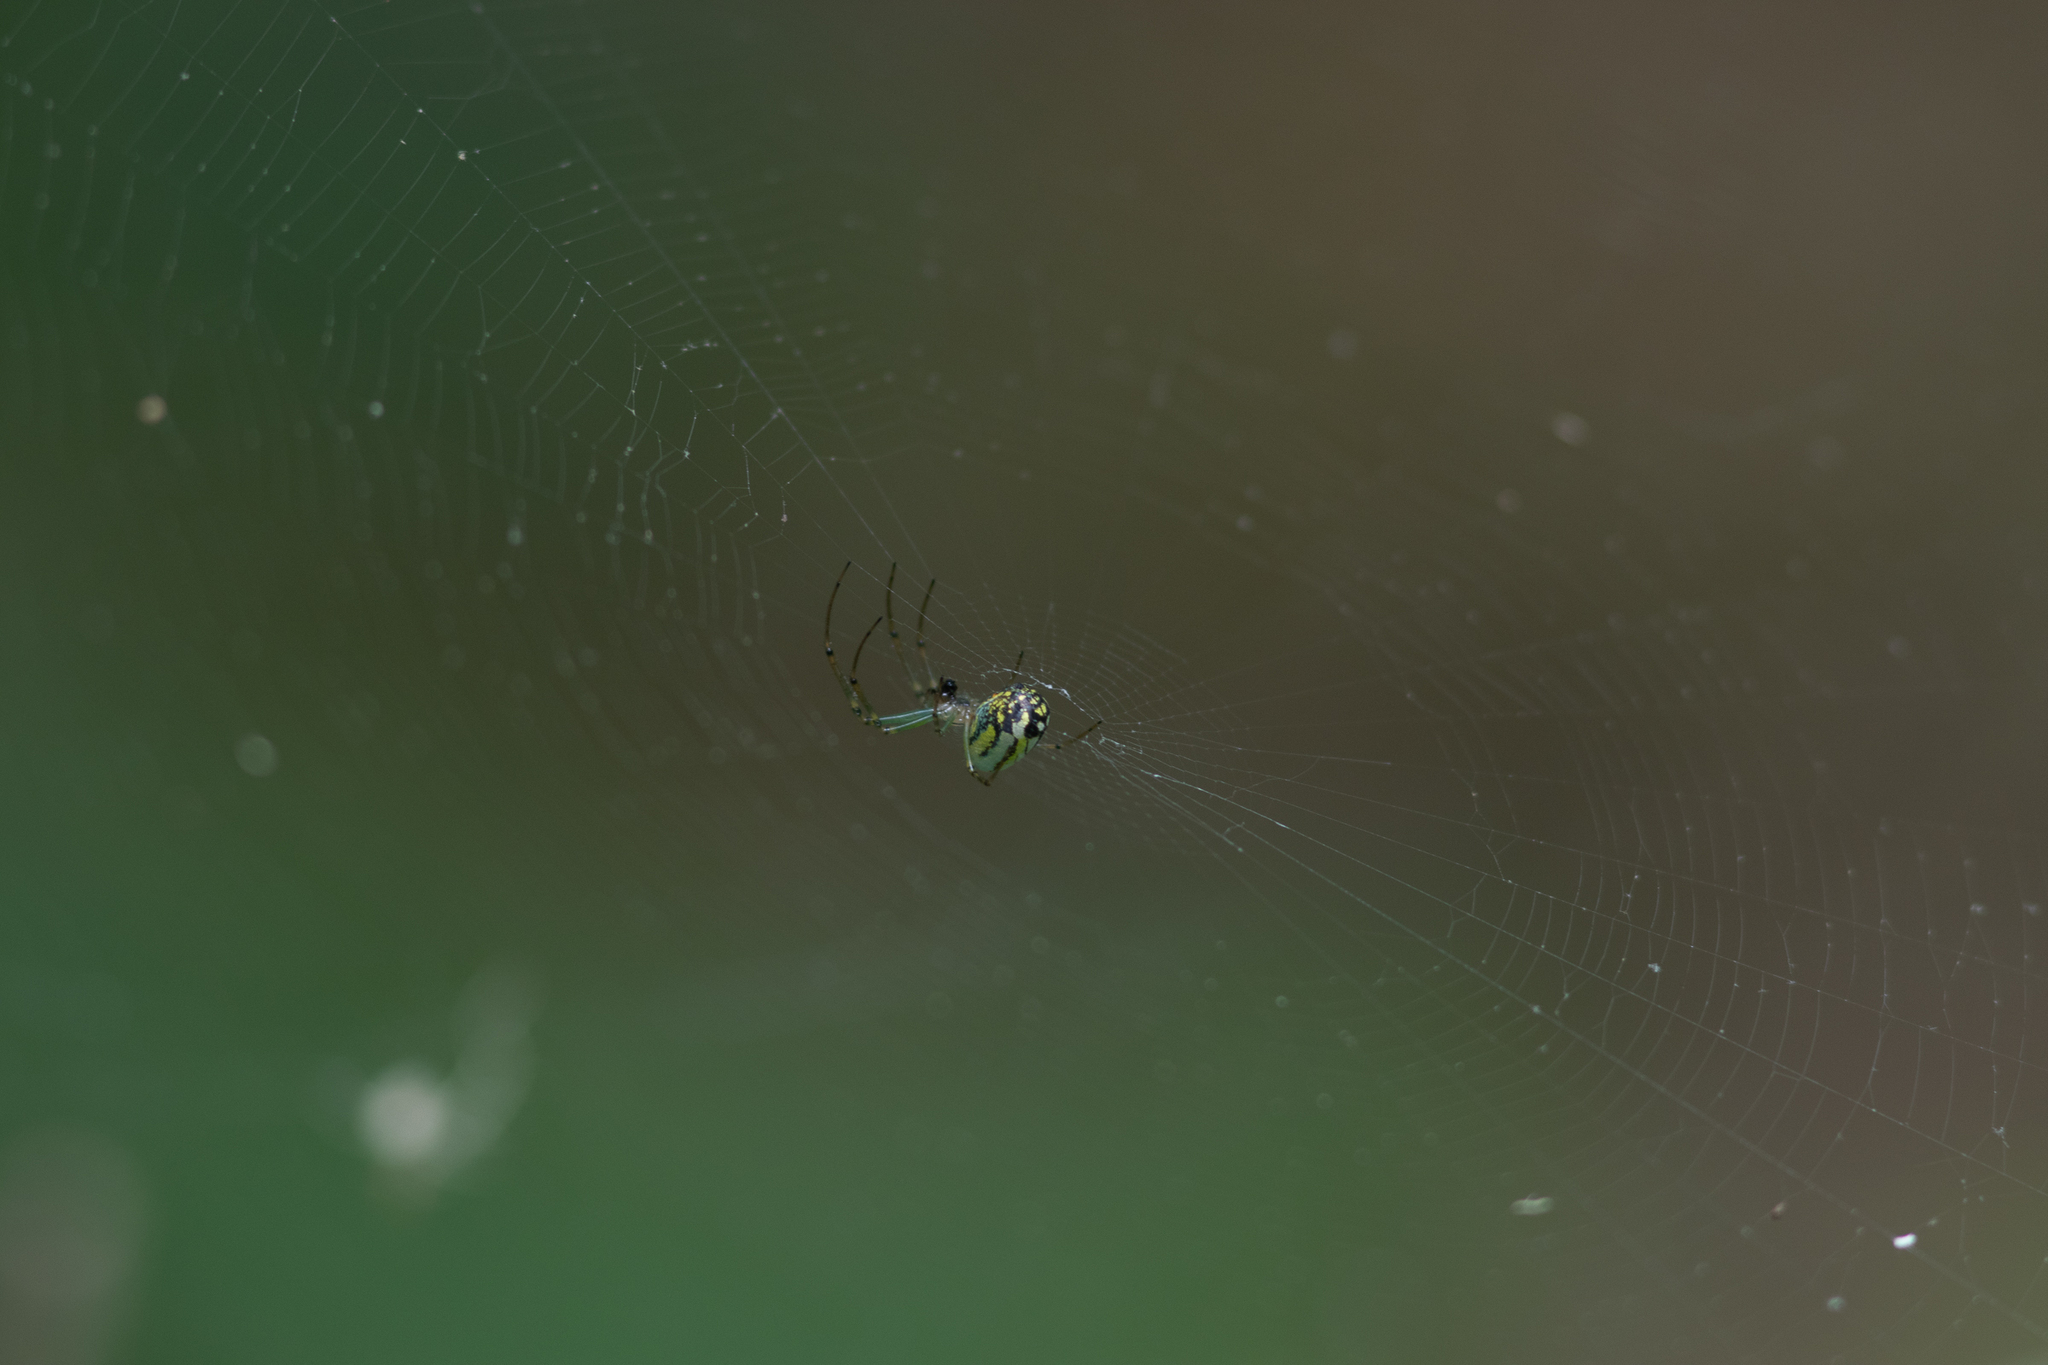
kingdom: Animalia
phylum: Arthropoda
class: Arachnida
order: Araneae
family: Tetragnathidae
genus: Leucauge
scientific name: Leucauge venusta
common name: Longjawed orb weavers
